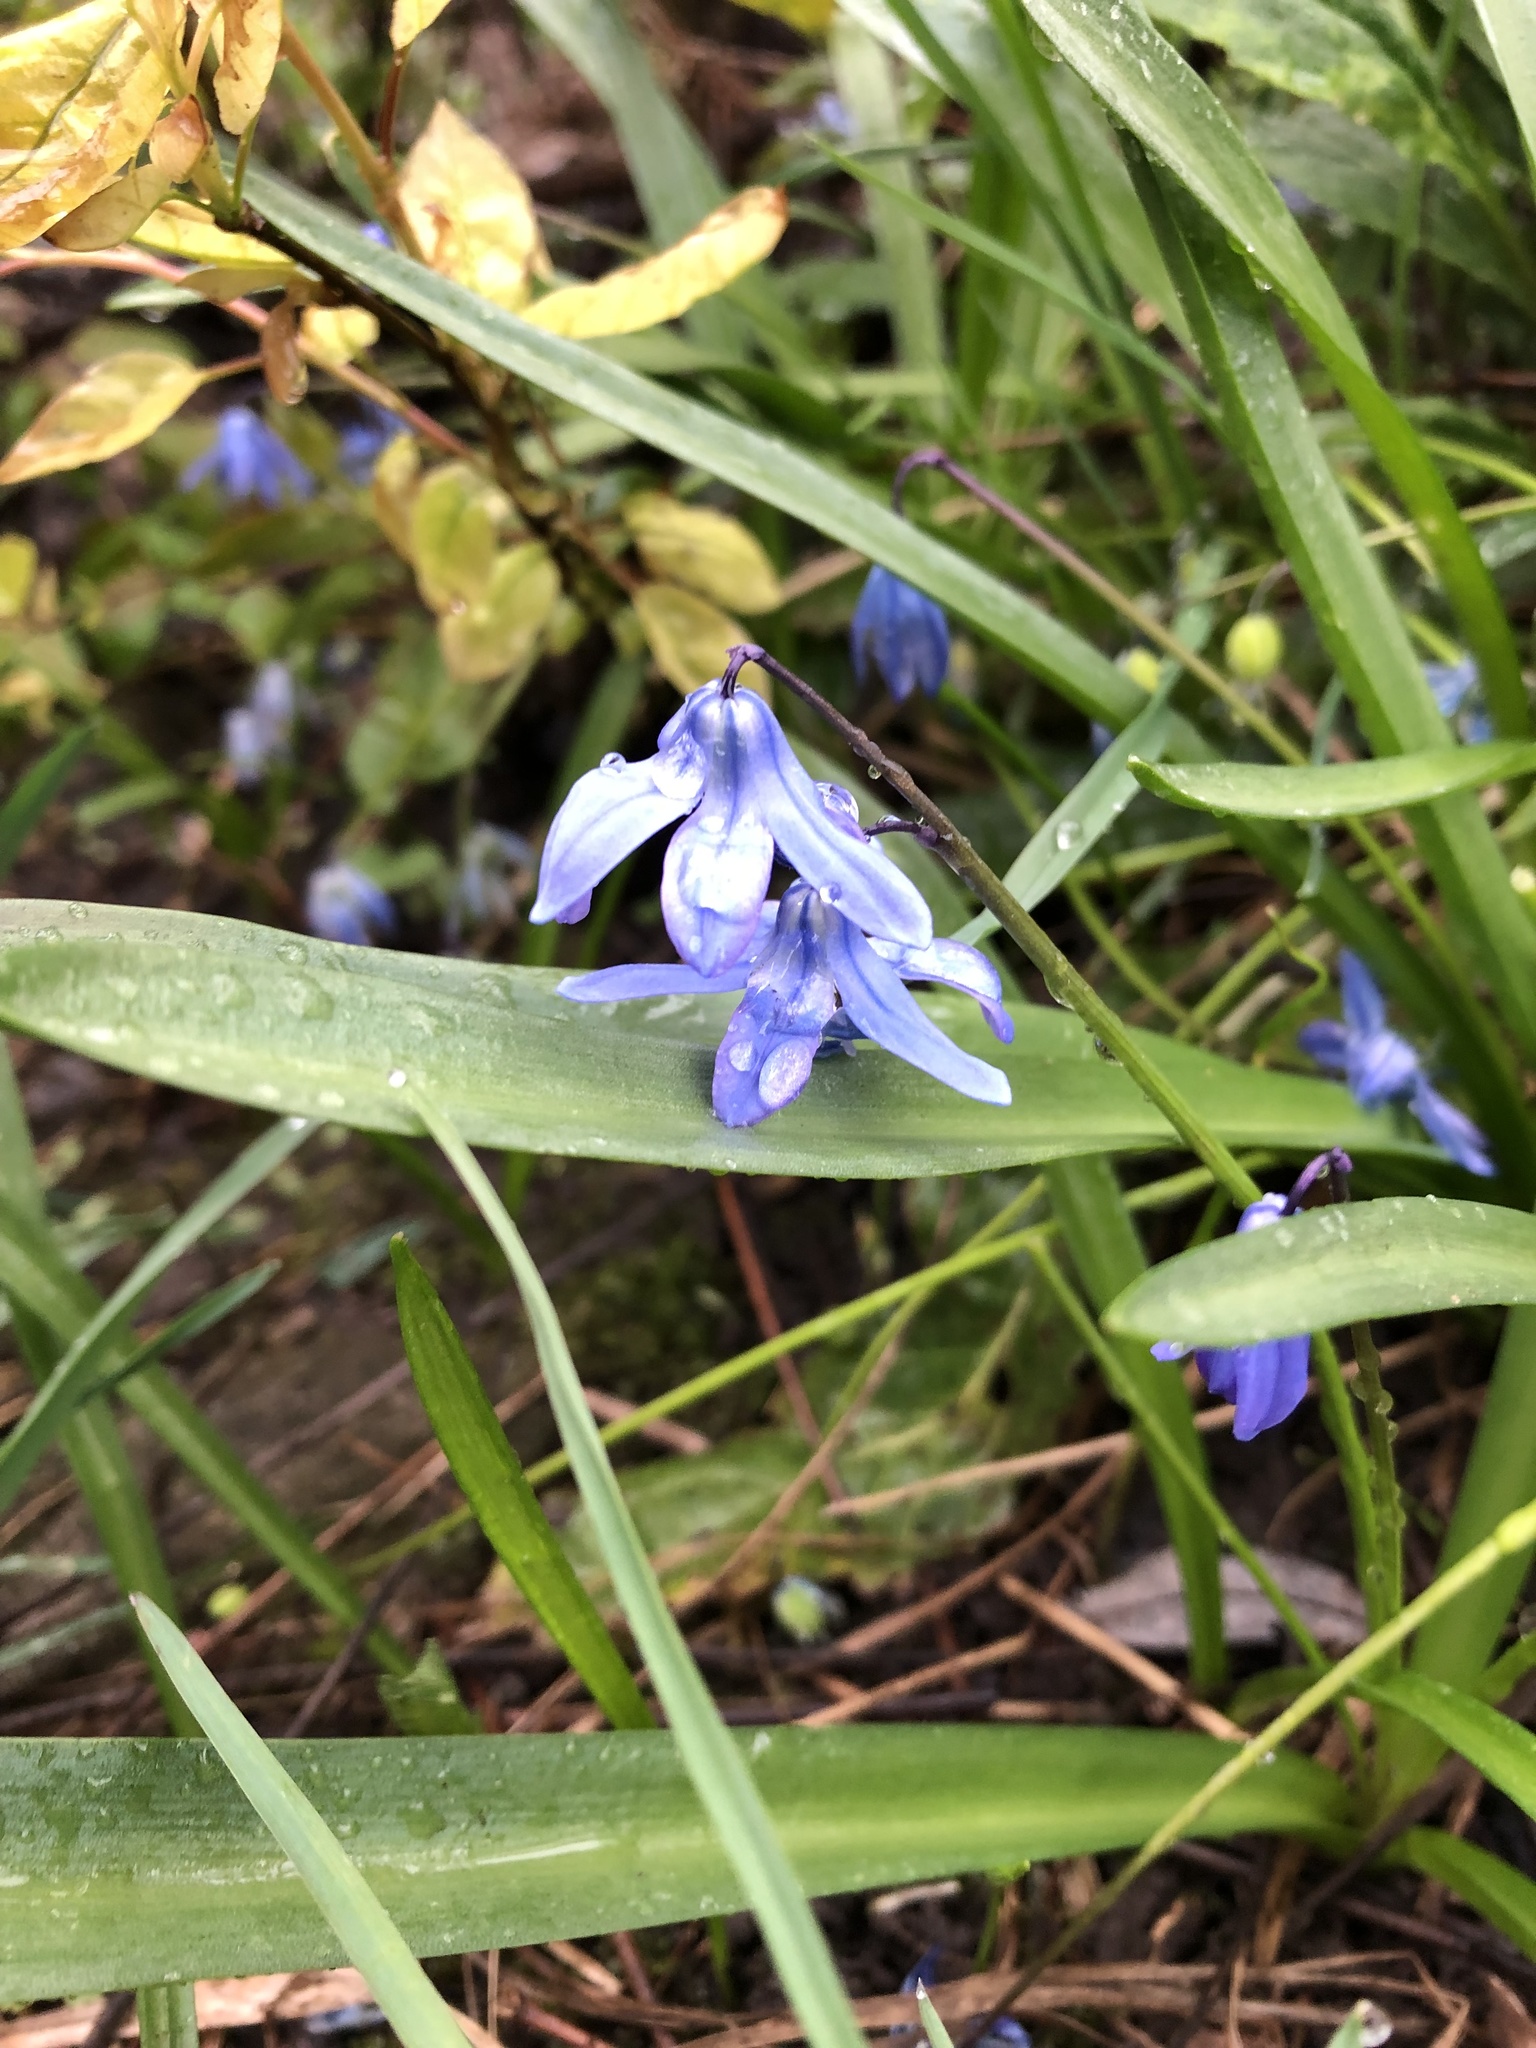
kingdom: Plantae
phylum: Tracheophyta
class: Liliopsida
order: Asparagales
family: Asparagaceae
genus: Scilla
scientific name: Scilla siberica
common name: Siberian squill
